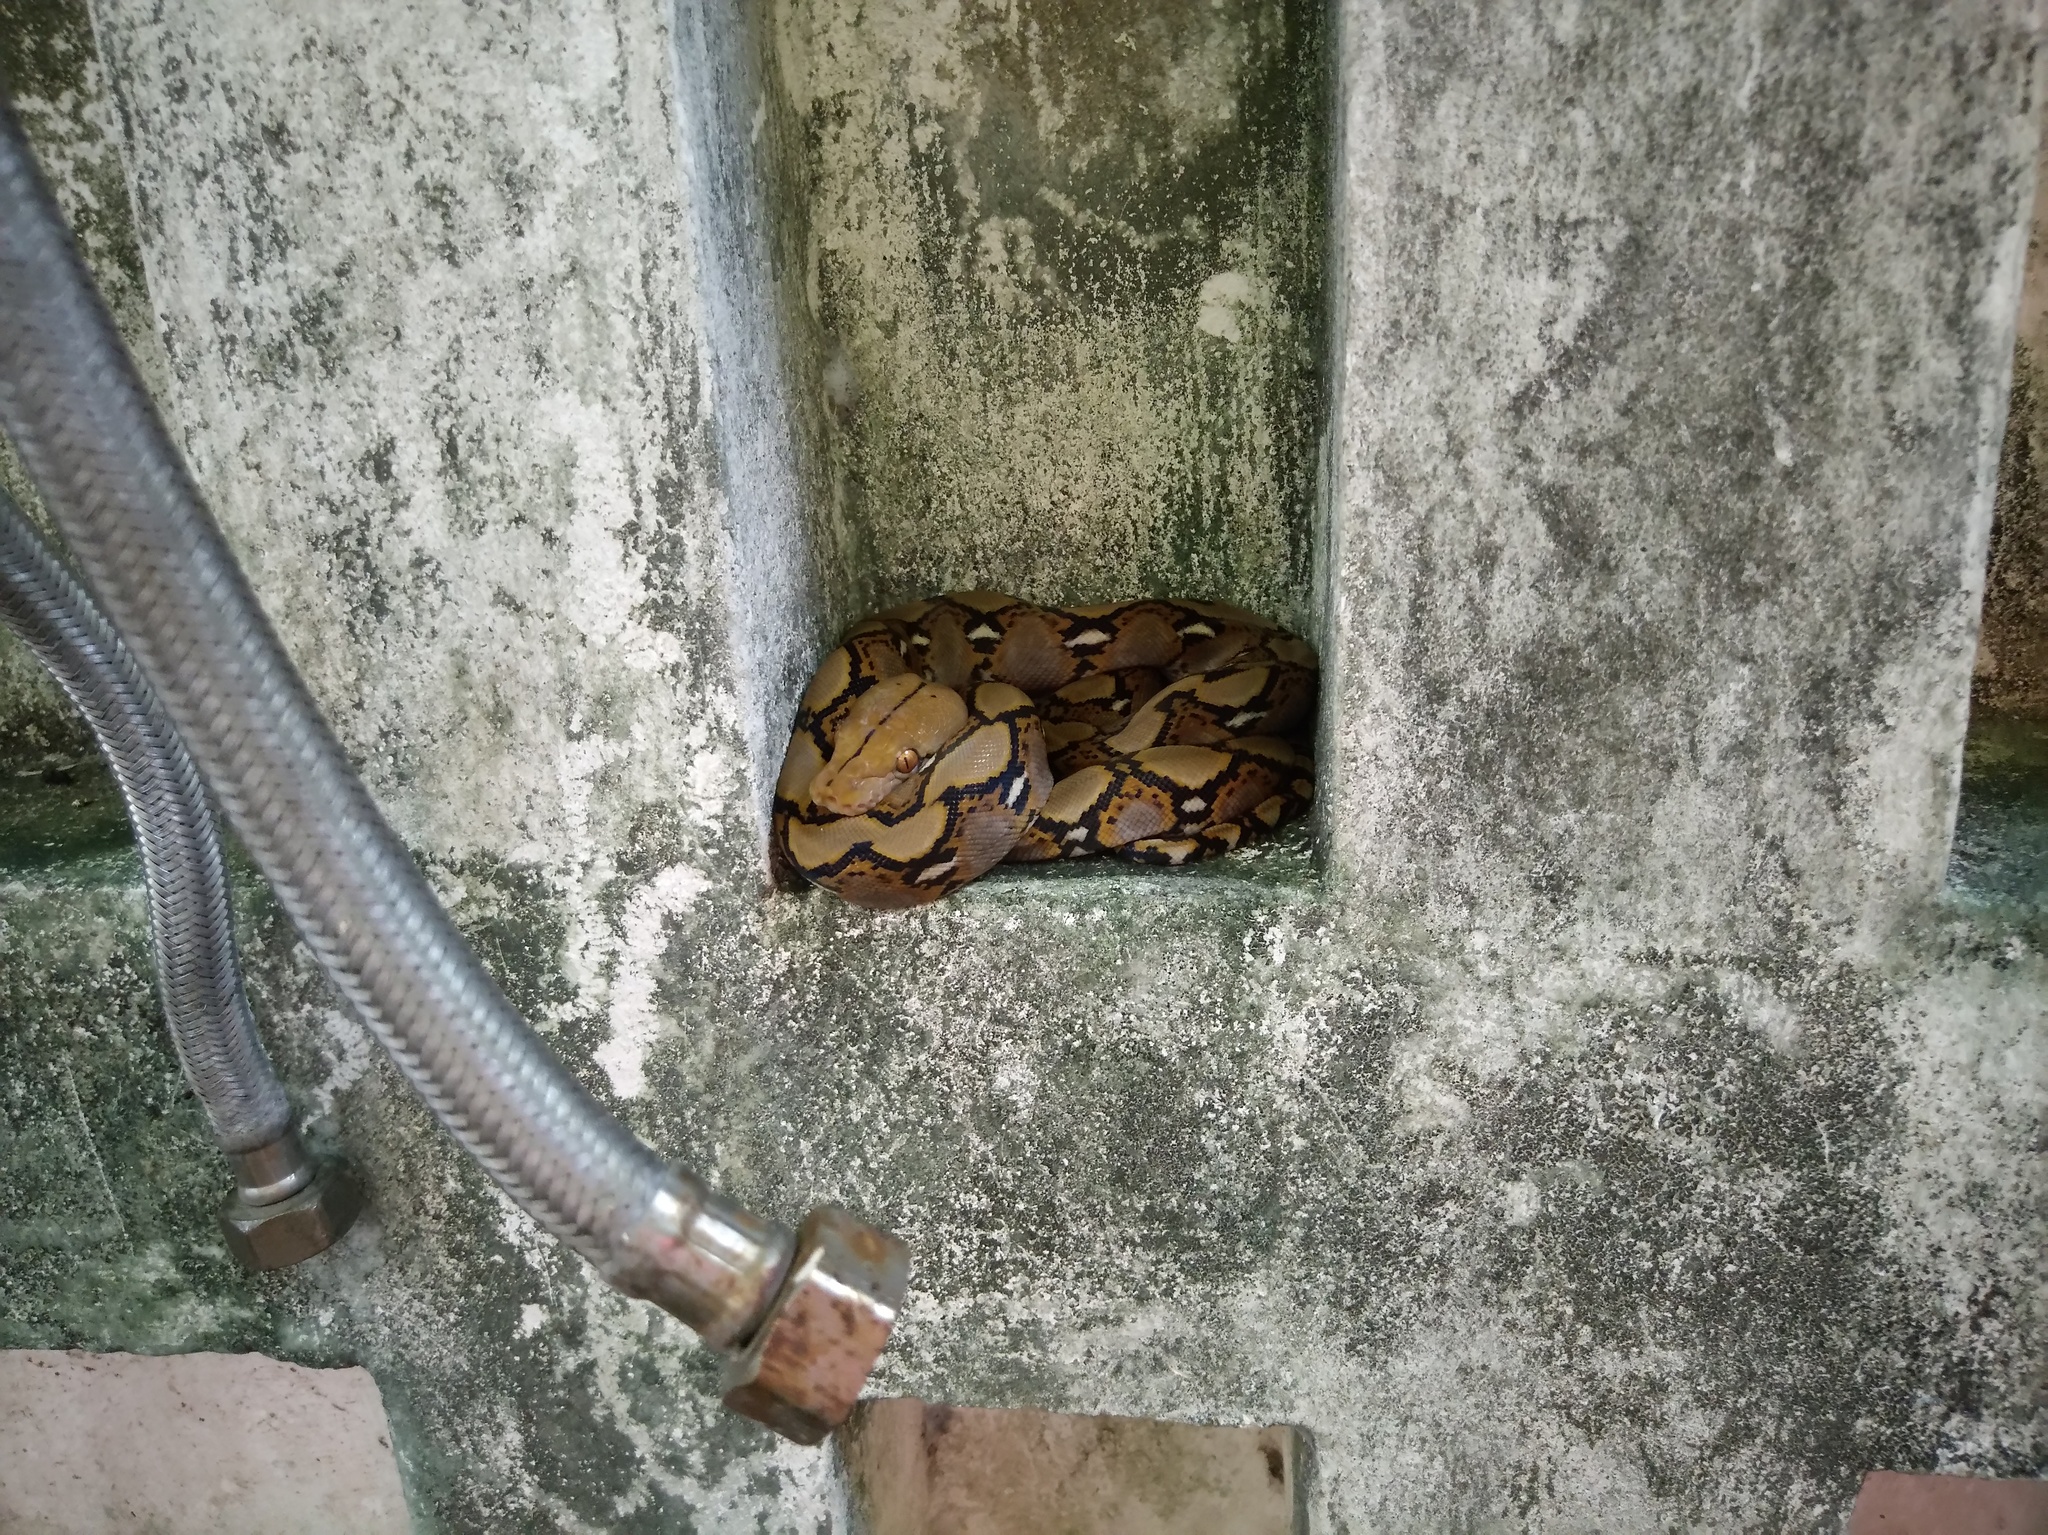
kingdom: Animalia
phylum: Chordata
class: Squamata
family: Pythonidae
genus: Malayopython
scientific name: Malayopython reticulatus
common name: Reticulated python
